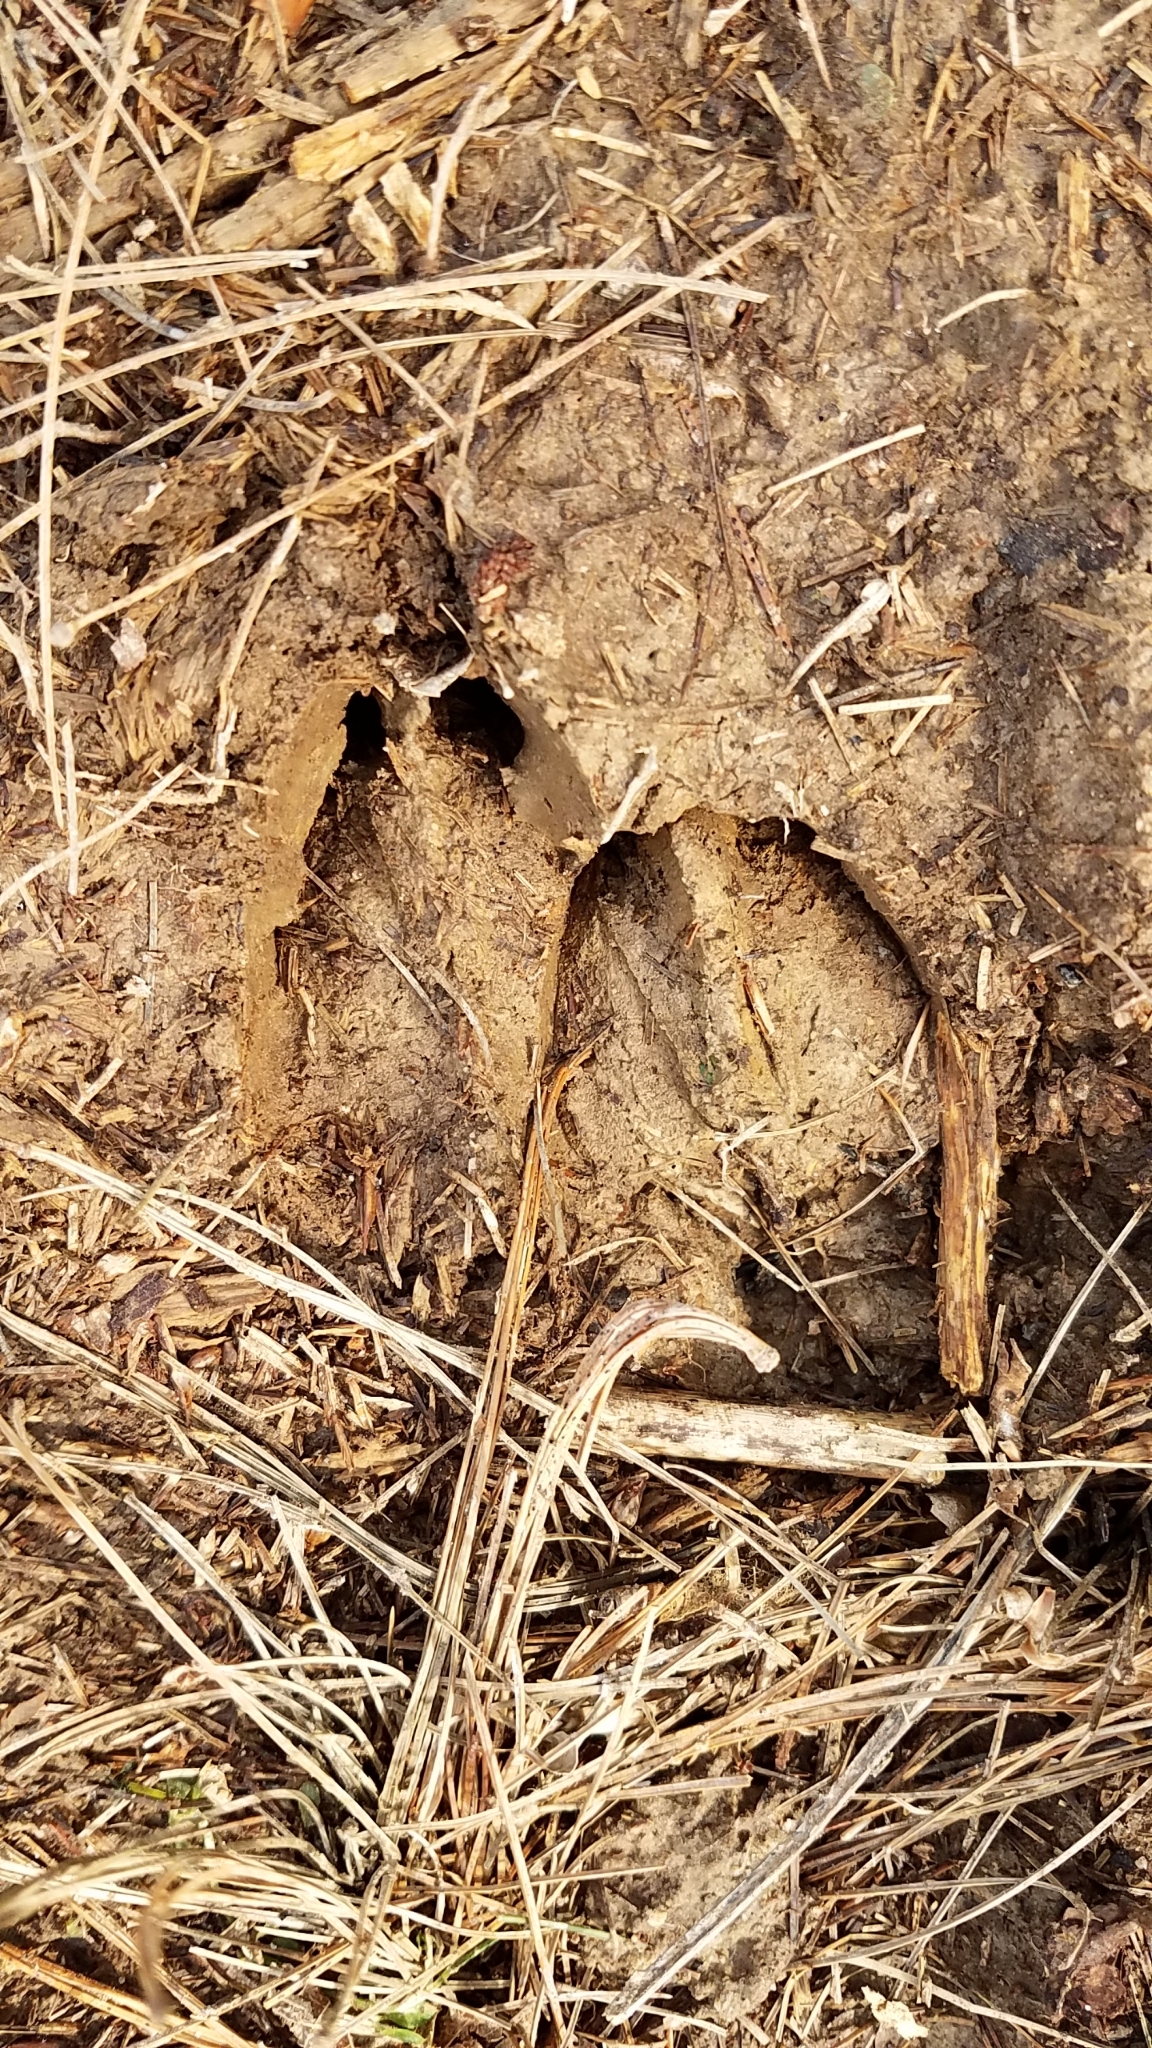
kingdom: Animalia
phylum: Chordata
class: Mammalia
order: Artiodactyla
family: Cervidae
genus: Odocoileus
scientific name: Odocoileus virginianus
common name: White-tailed deer
